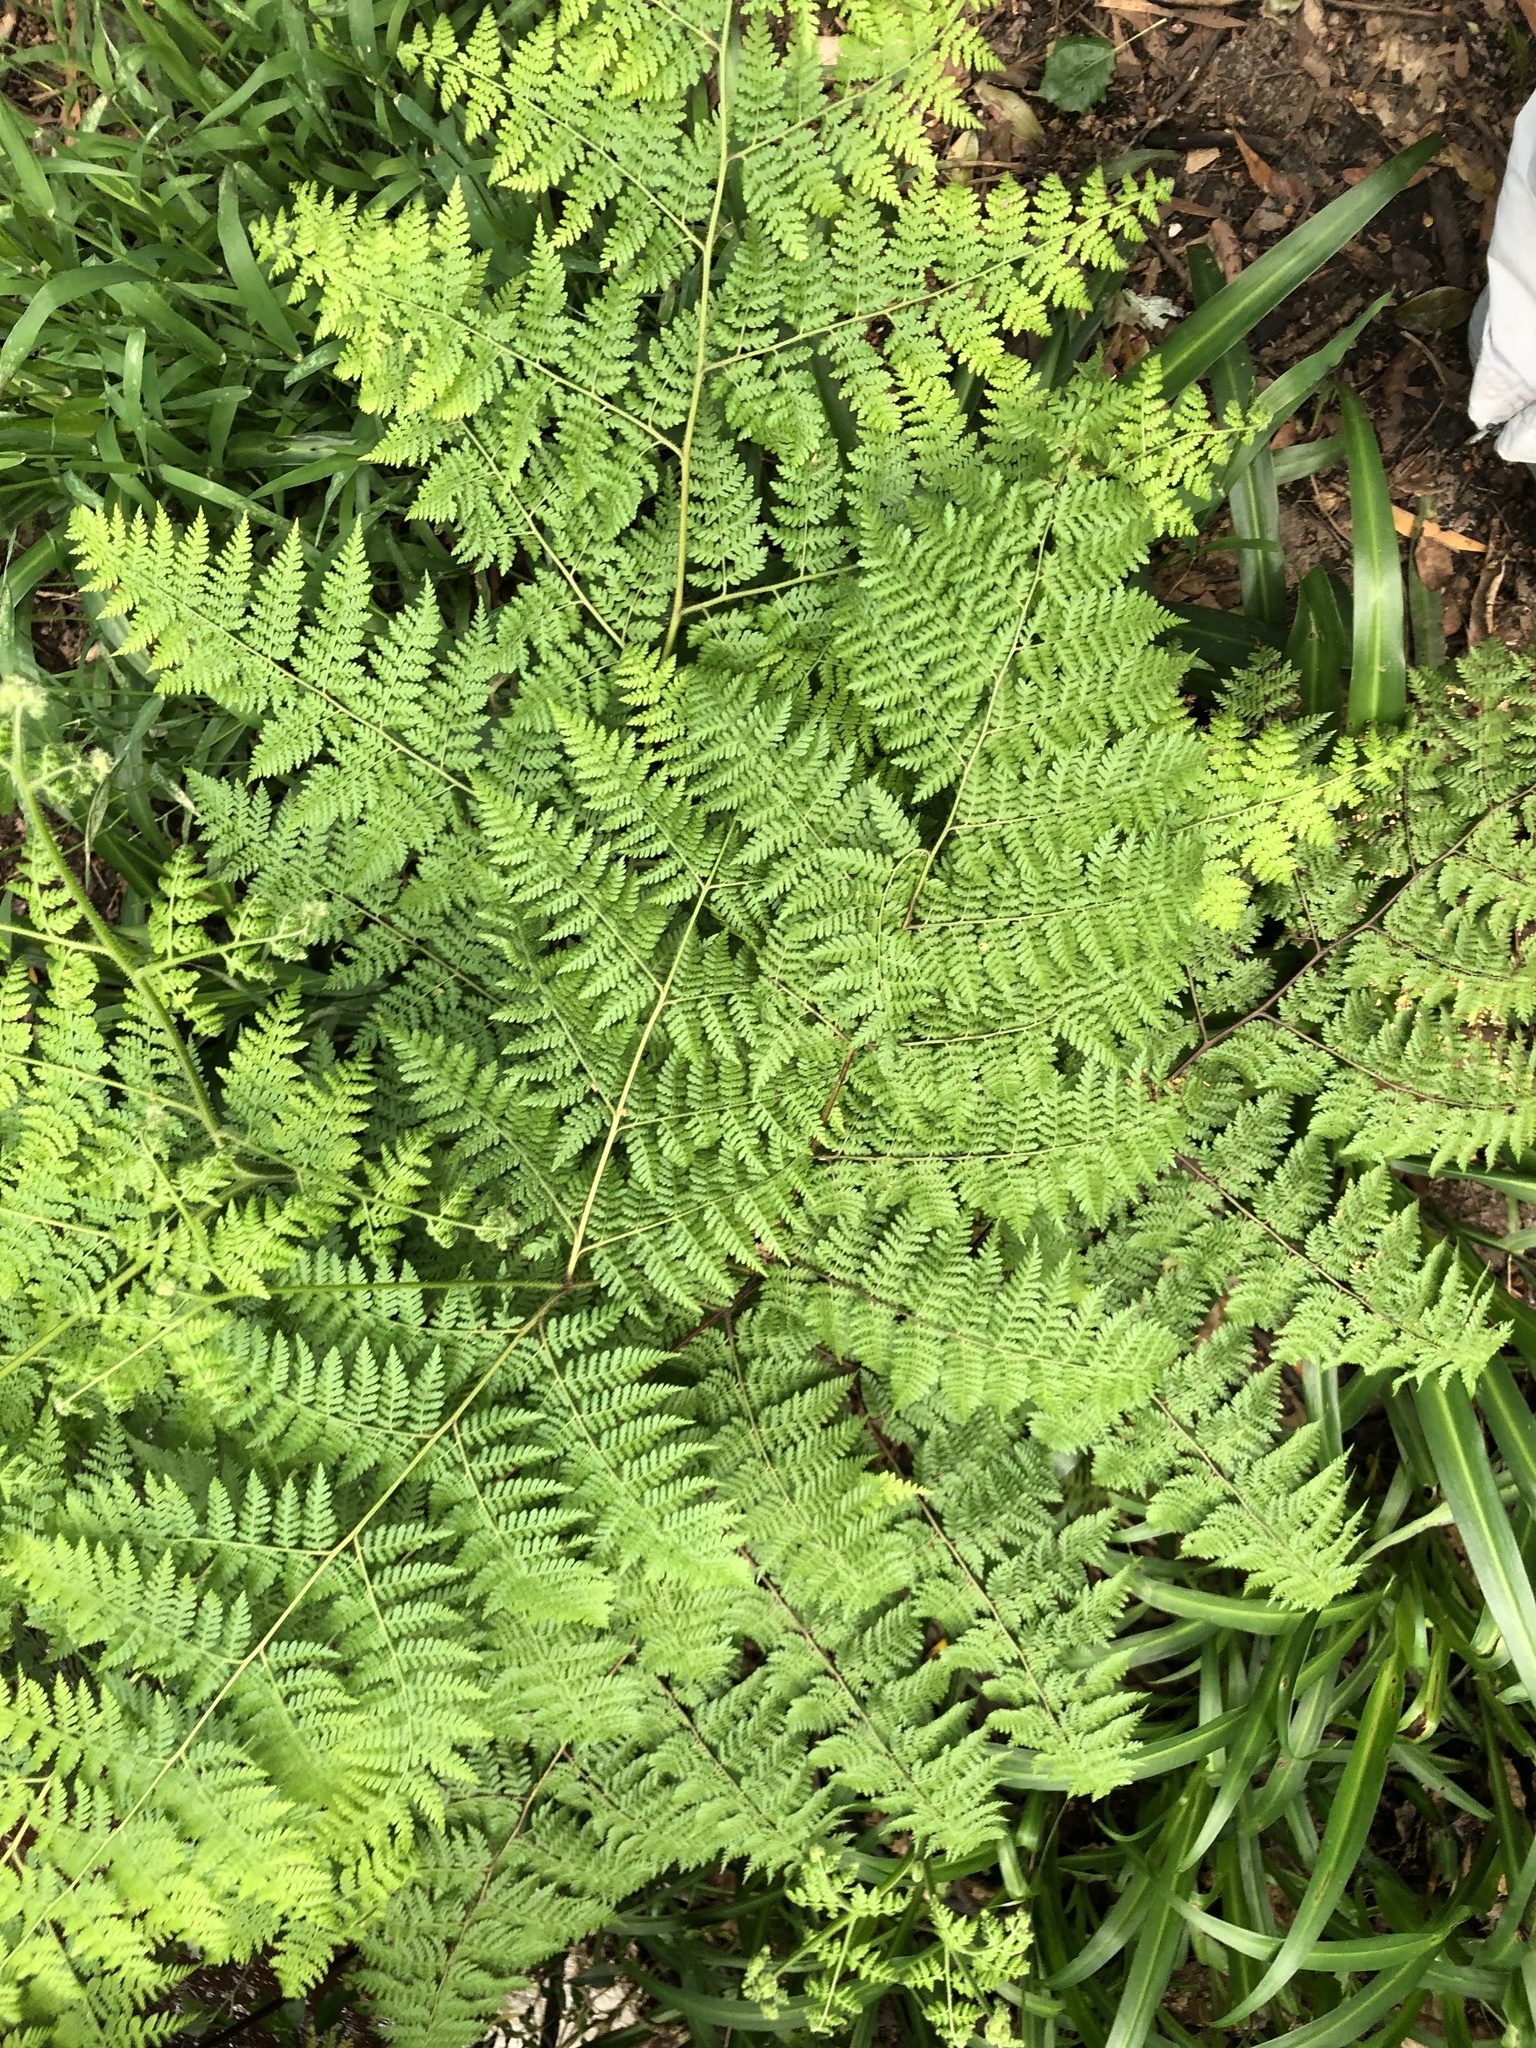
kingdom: Plantae
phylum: Tracheophyta
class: Polypodiopsida
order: Polypodiales
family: Dennstaedtiaceae
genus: Histiopteris
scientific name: Histiopteris incisa
